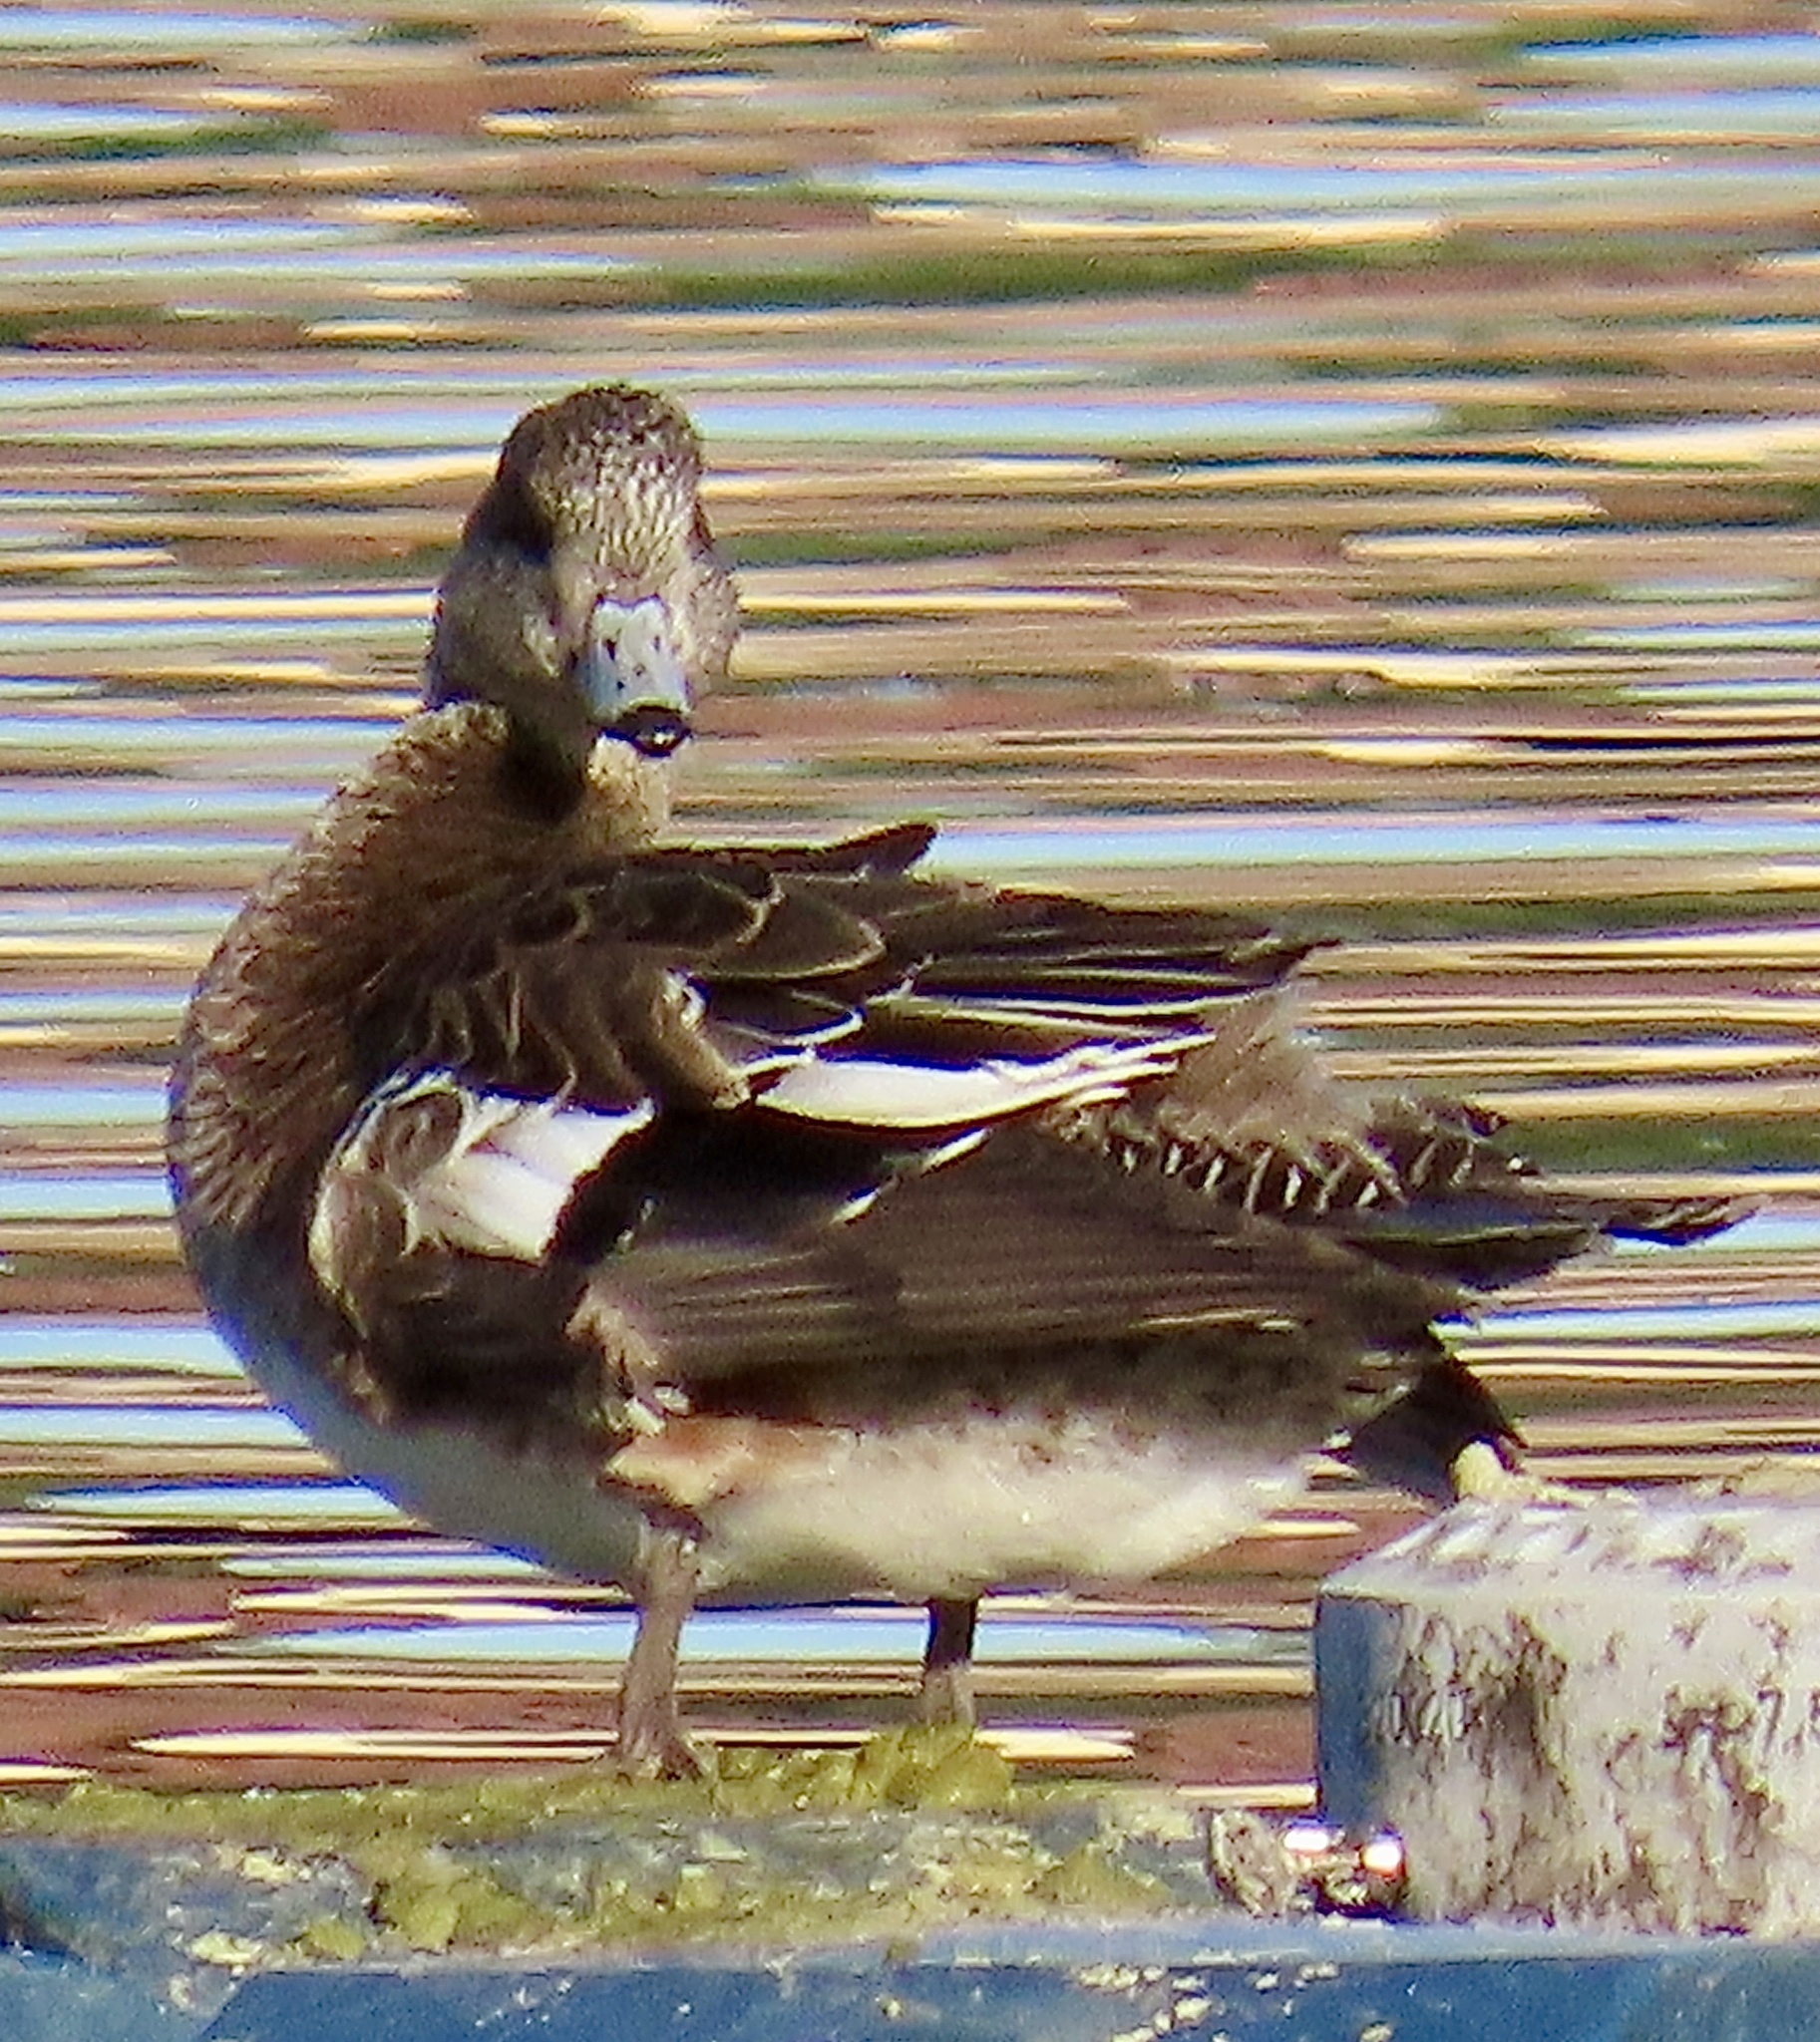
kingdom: Animalia
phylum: Chordata
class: Aves
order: Anseriformes
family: Anatidae
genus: Mareca
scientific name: Mareca americana
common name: American wigeon
